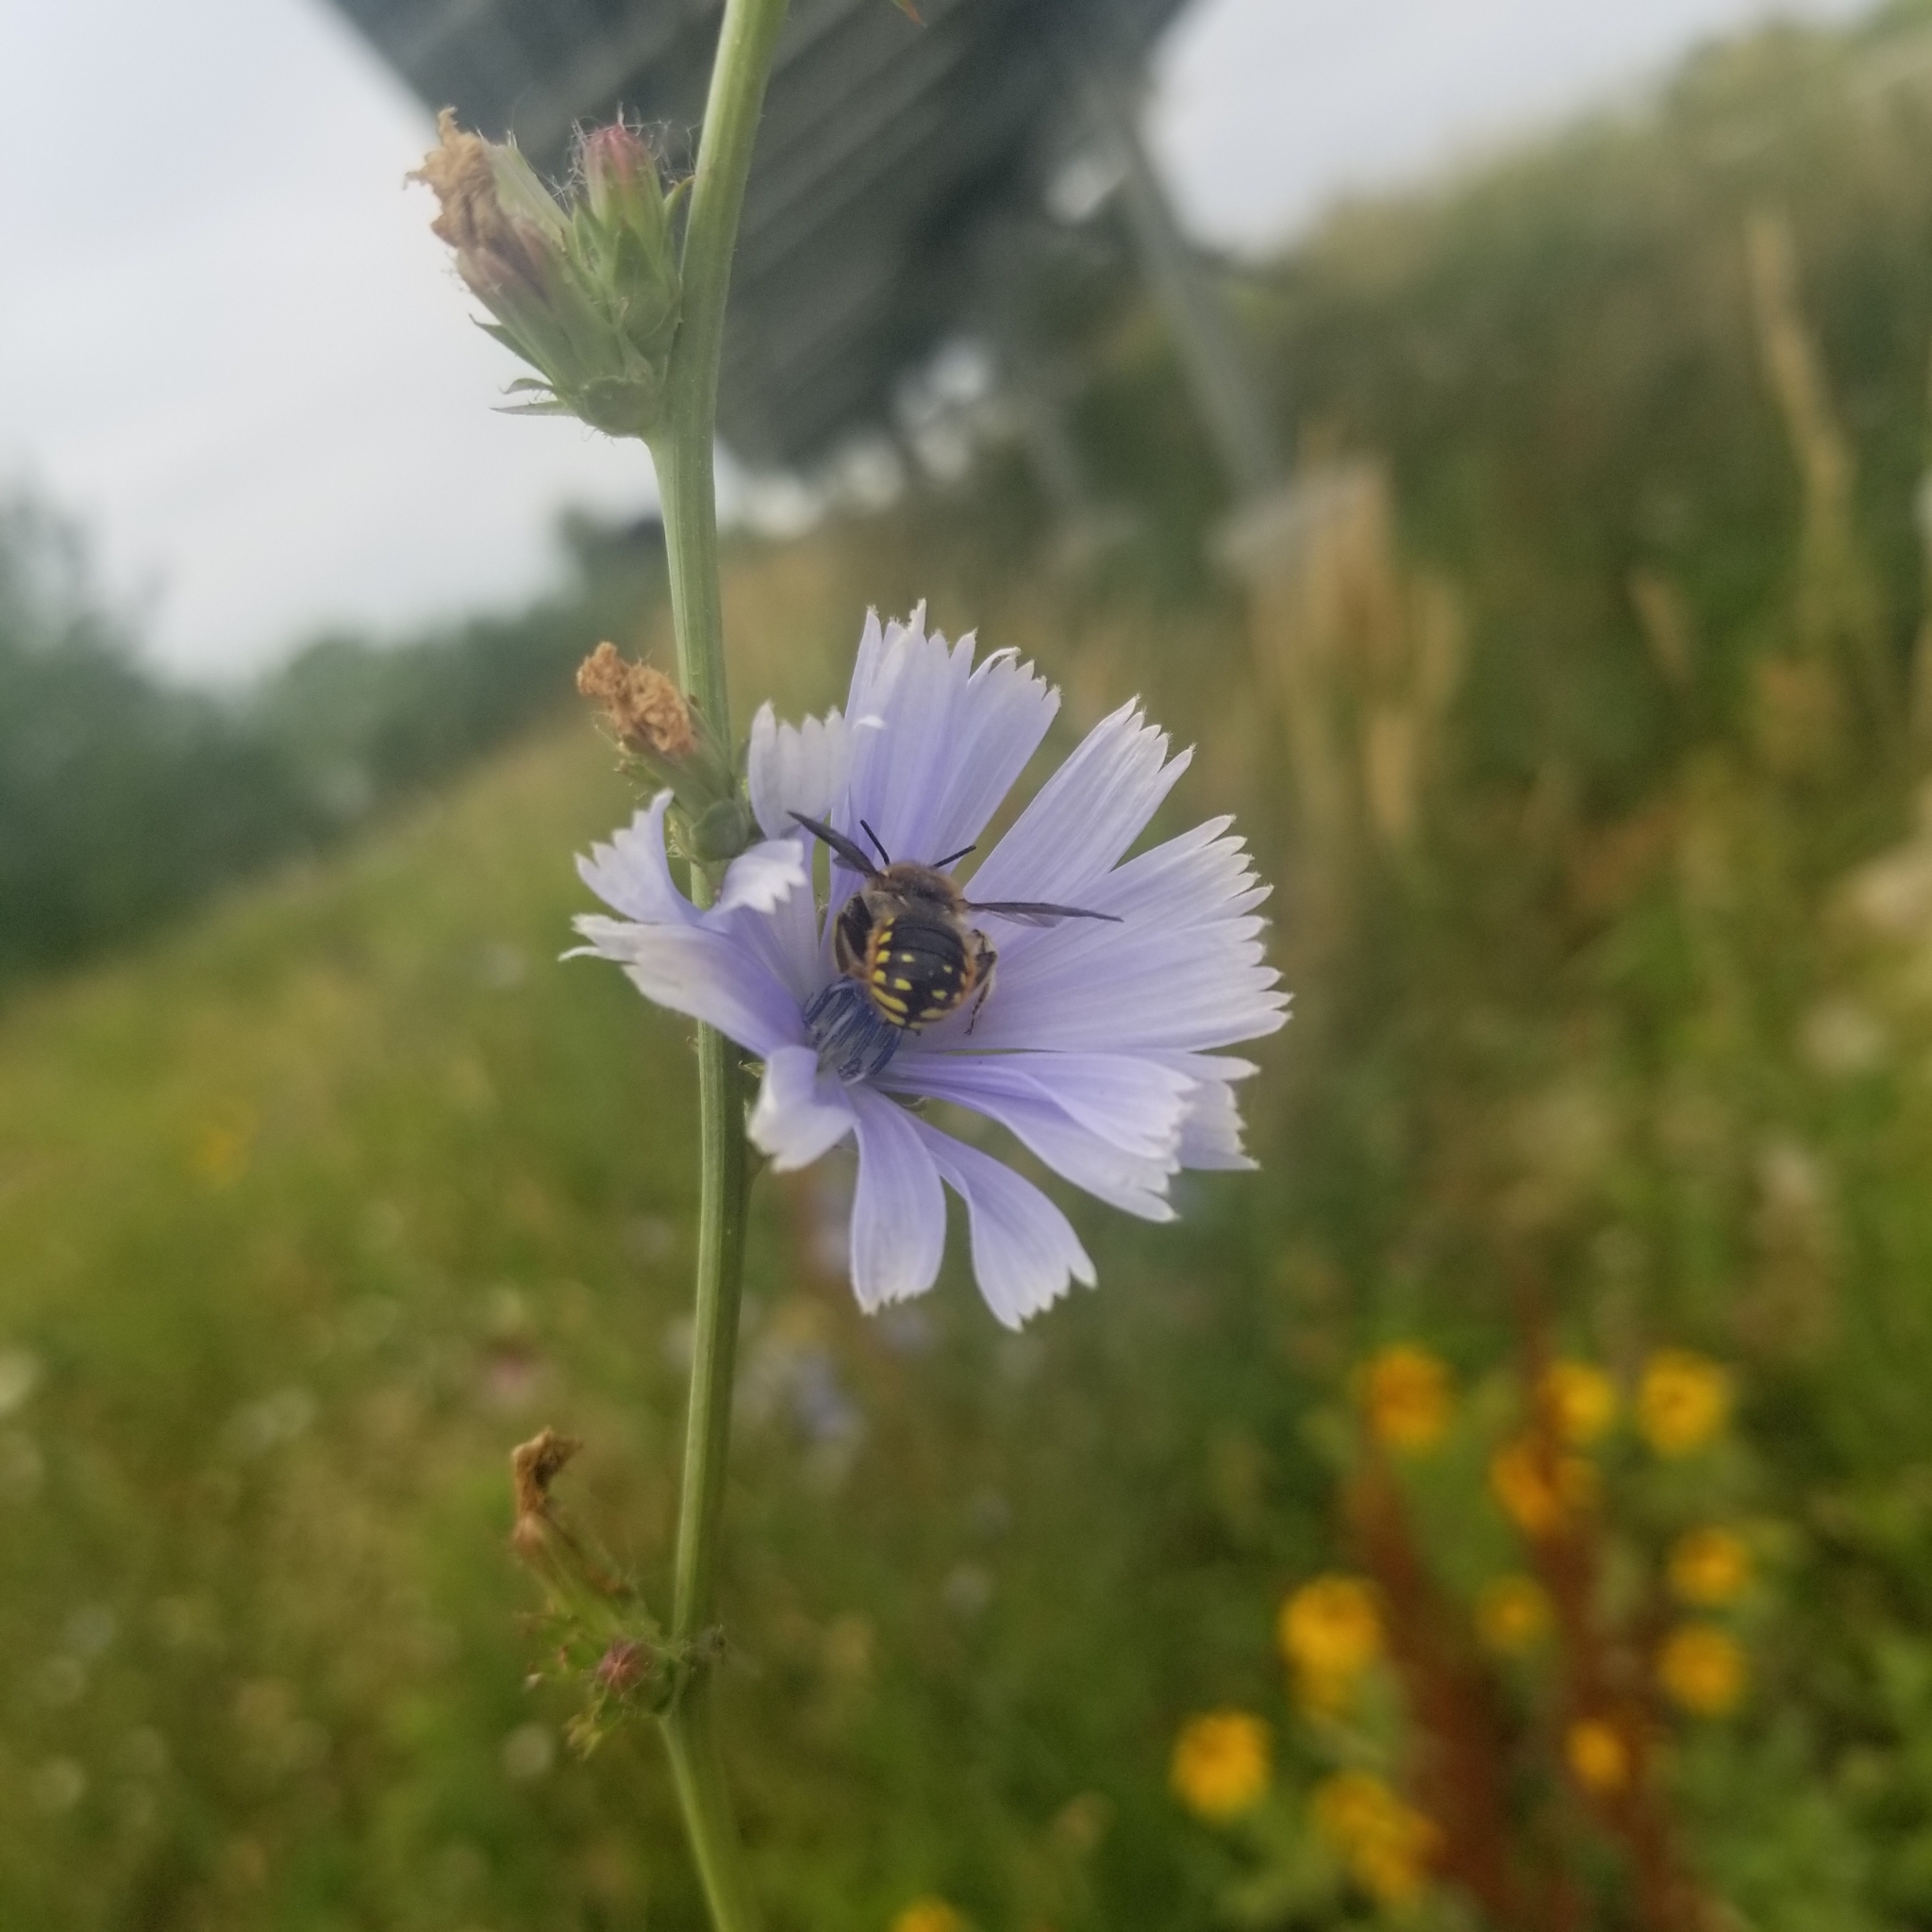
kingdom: Animalia
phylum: Arthropoda
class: Insecta
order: Hymenoptera
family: Megachilidae
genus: Anthidium
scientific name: Anthidium manicatum
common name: Wool carder bee
